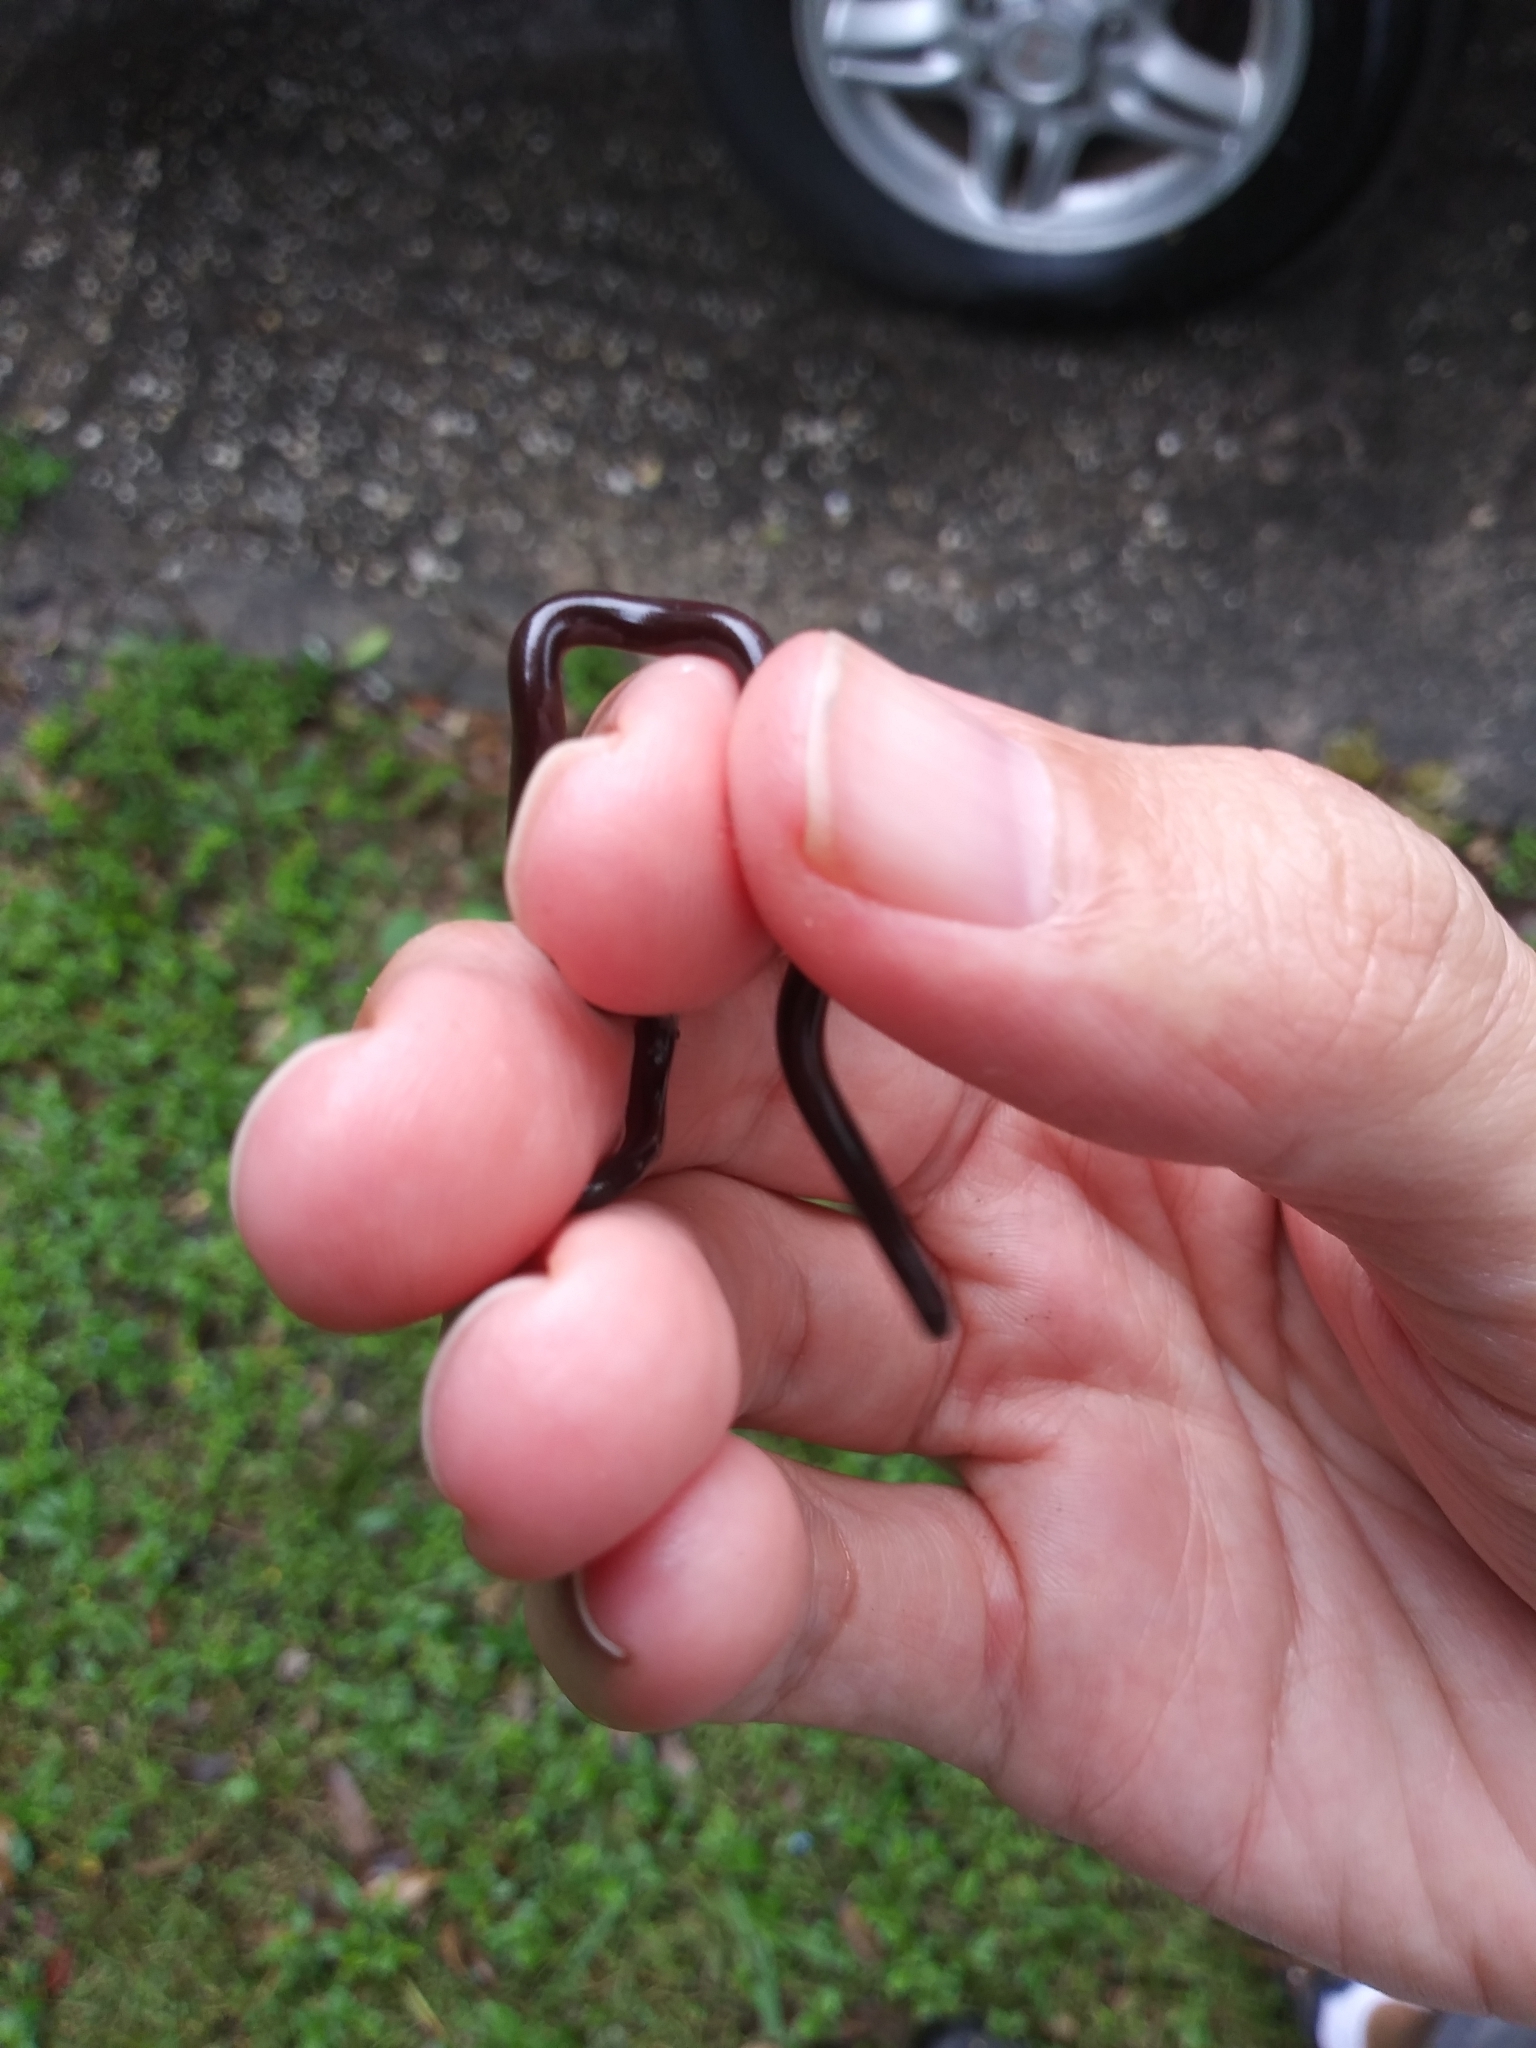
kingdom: Animalia
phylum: Chordata
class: Squamata
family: Typhlopidae
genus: Indotyphlops
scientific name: Indotyphlops braminus
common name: Brahminy blindsnake
